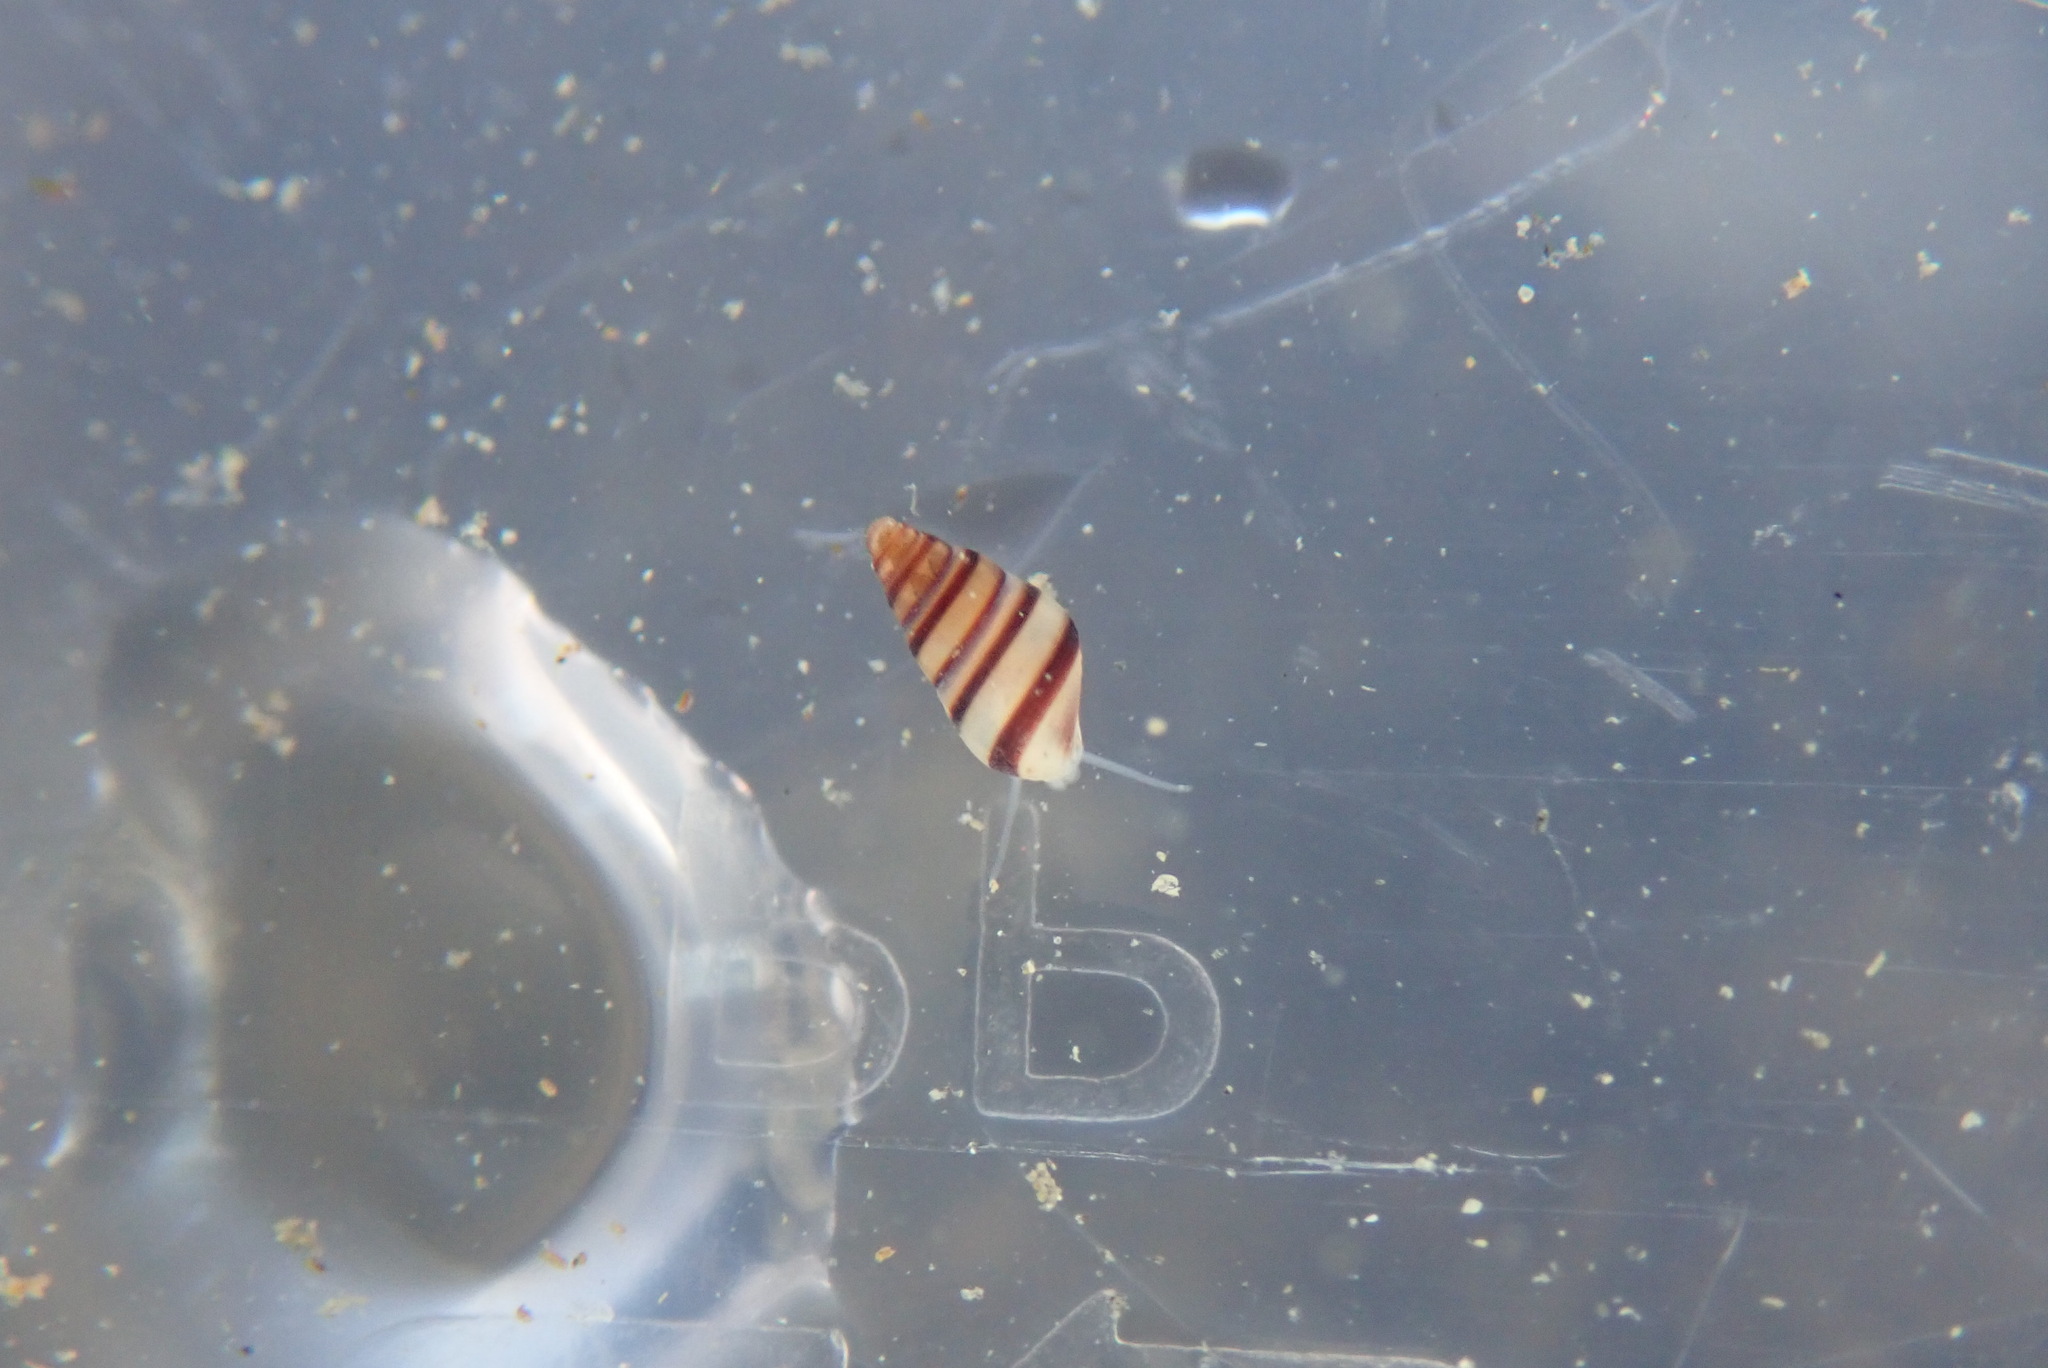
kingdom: Animalia
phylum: Mollusca
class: Gastropoda
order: Littorinimorpha
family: Rissoidae
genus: Cingula
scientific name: Cingula trifasciata
